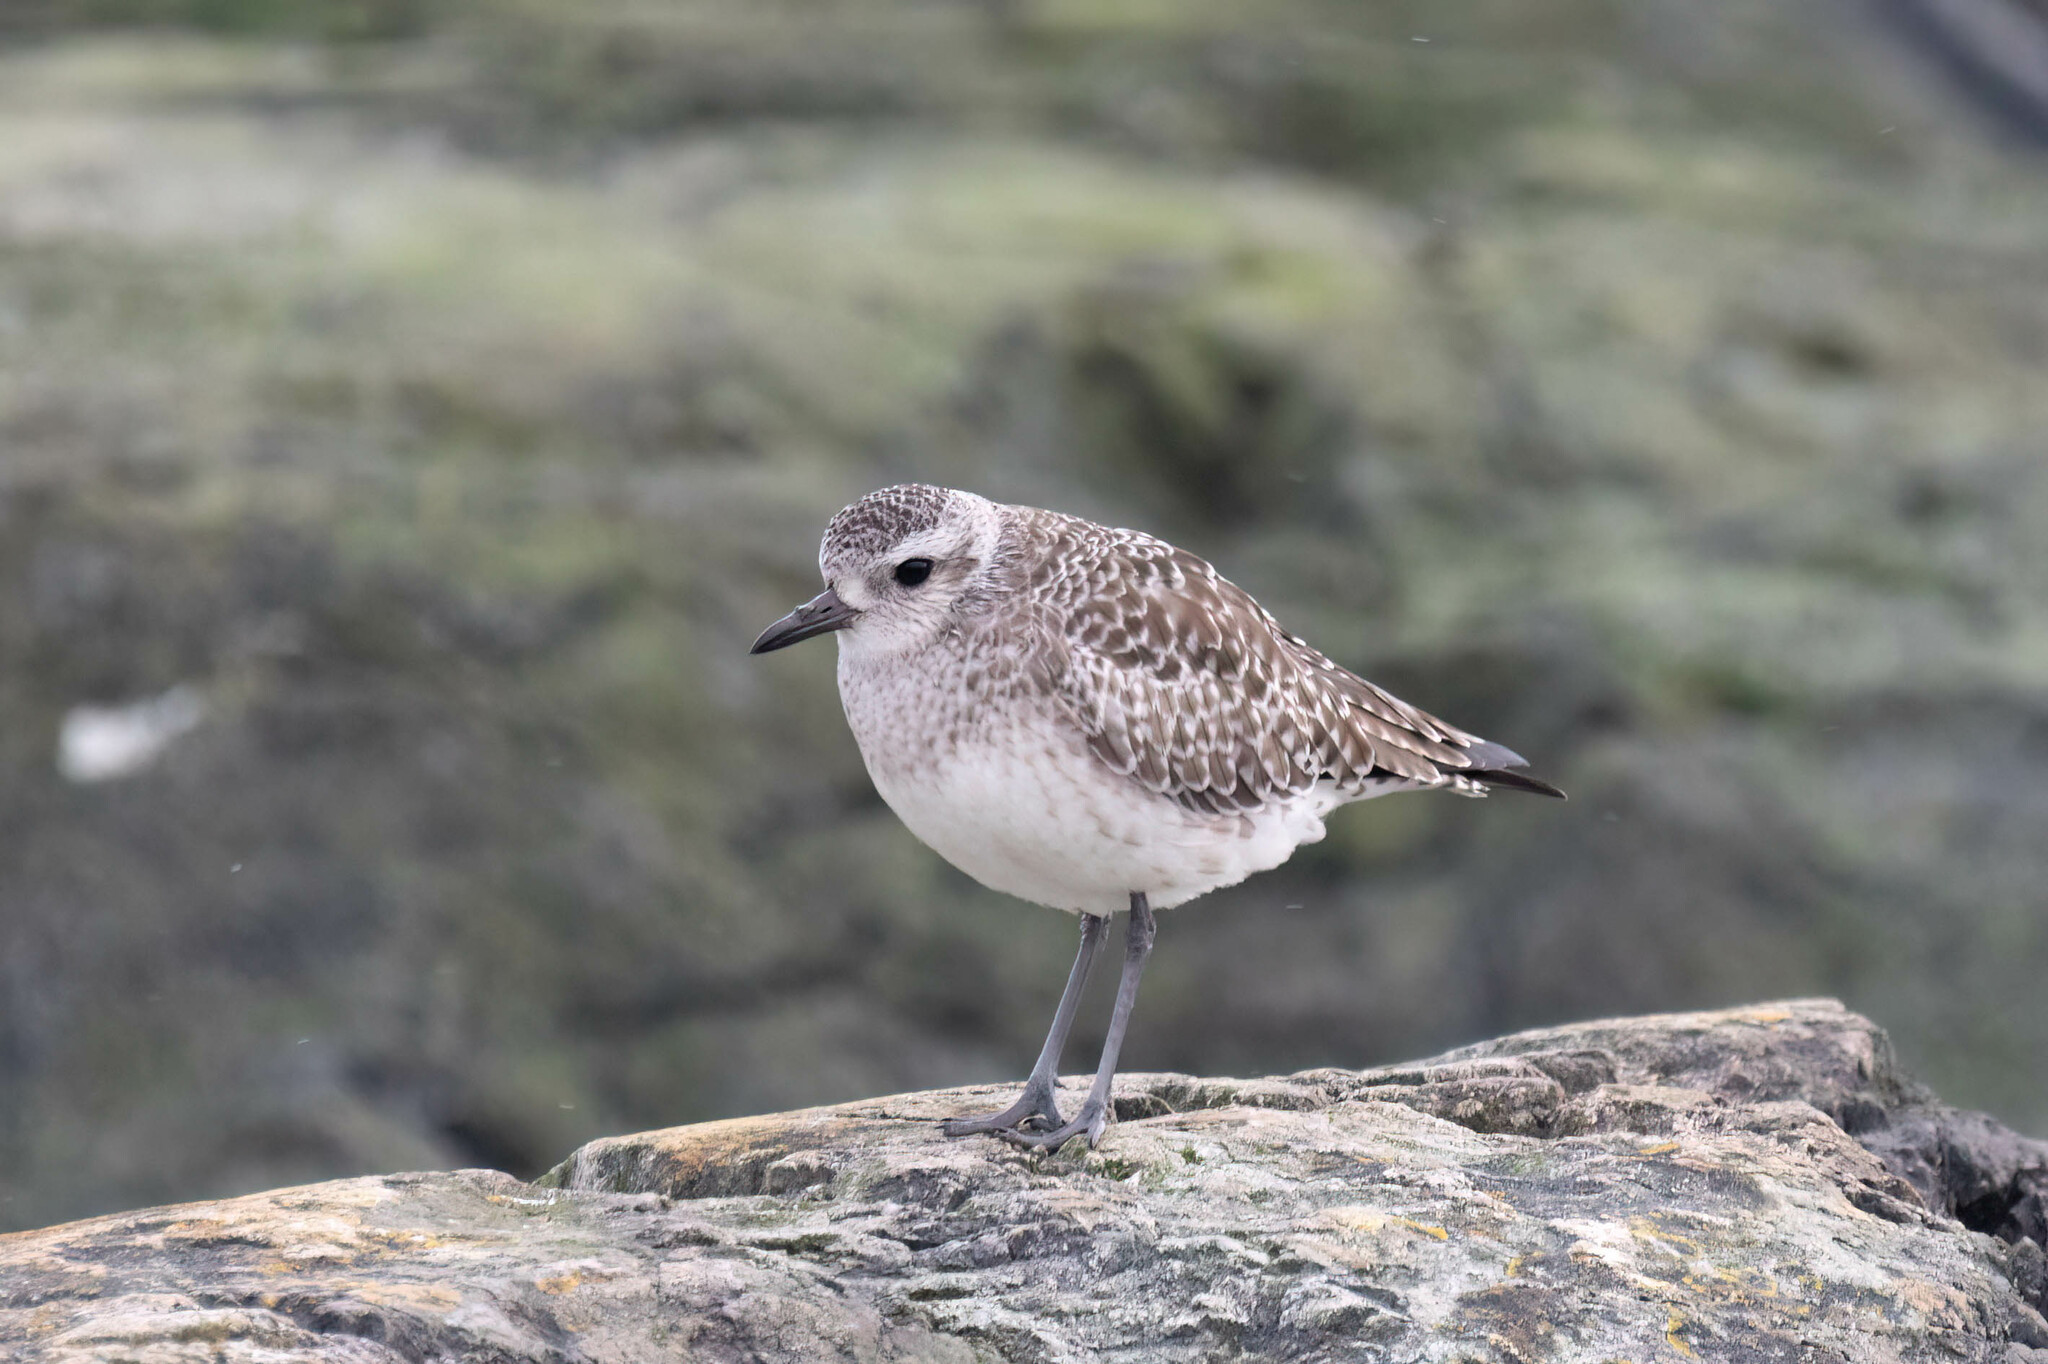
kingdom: Animalia
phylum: Chordata
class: Aves
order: Charadriiformes
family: Charadriidae
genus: Pluvialis
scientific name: Pluvialis squatarola
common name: Grey plover
